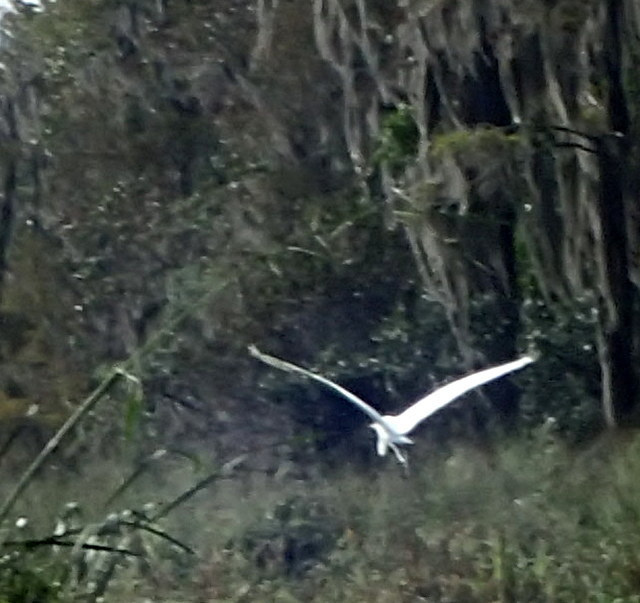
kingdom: Animalia
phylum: Chordata
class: Aves
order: Pelecaniformes
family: Ardeidae
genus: Ardea
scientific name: Ardea alba
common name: Great egret
